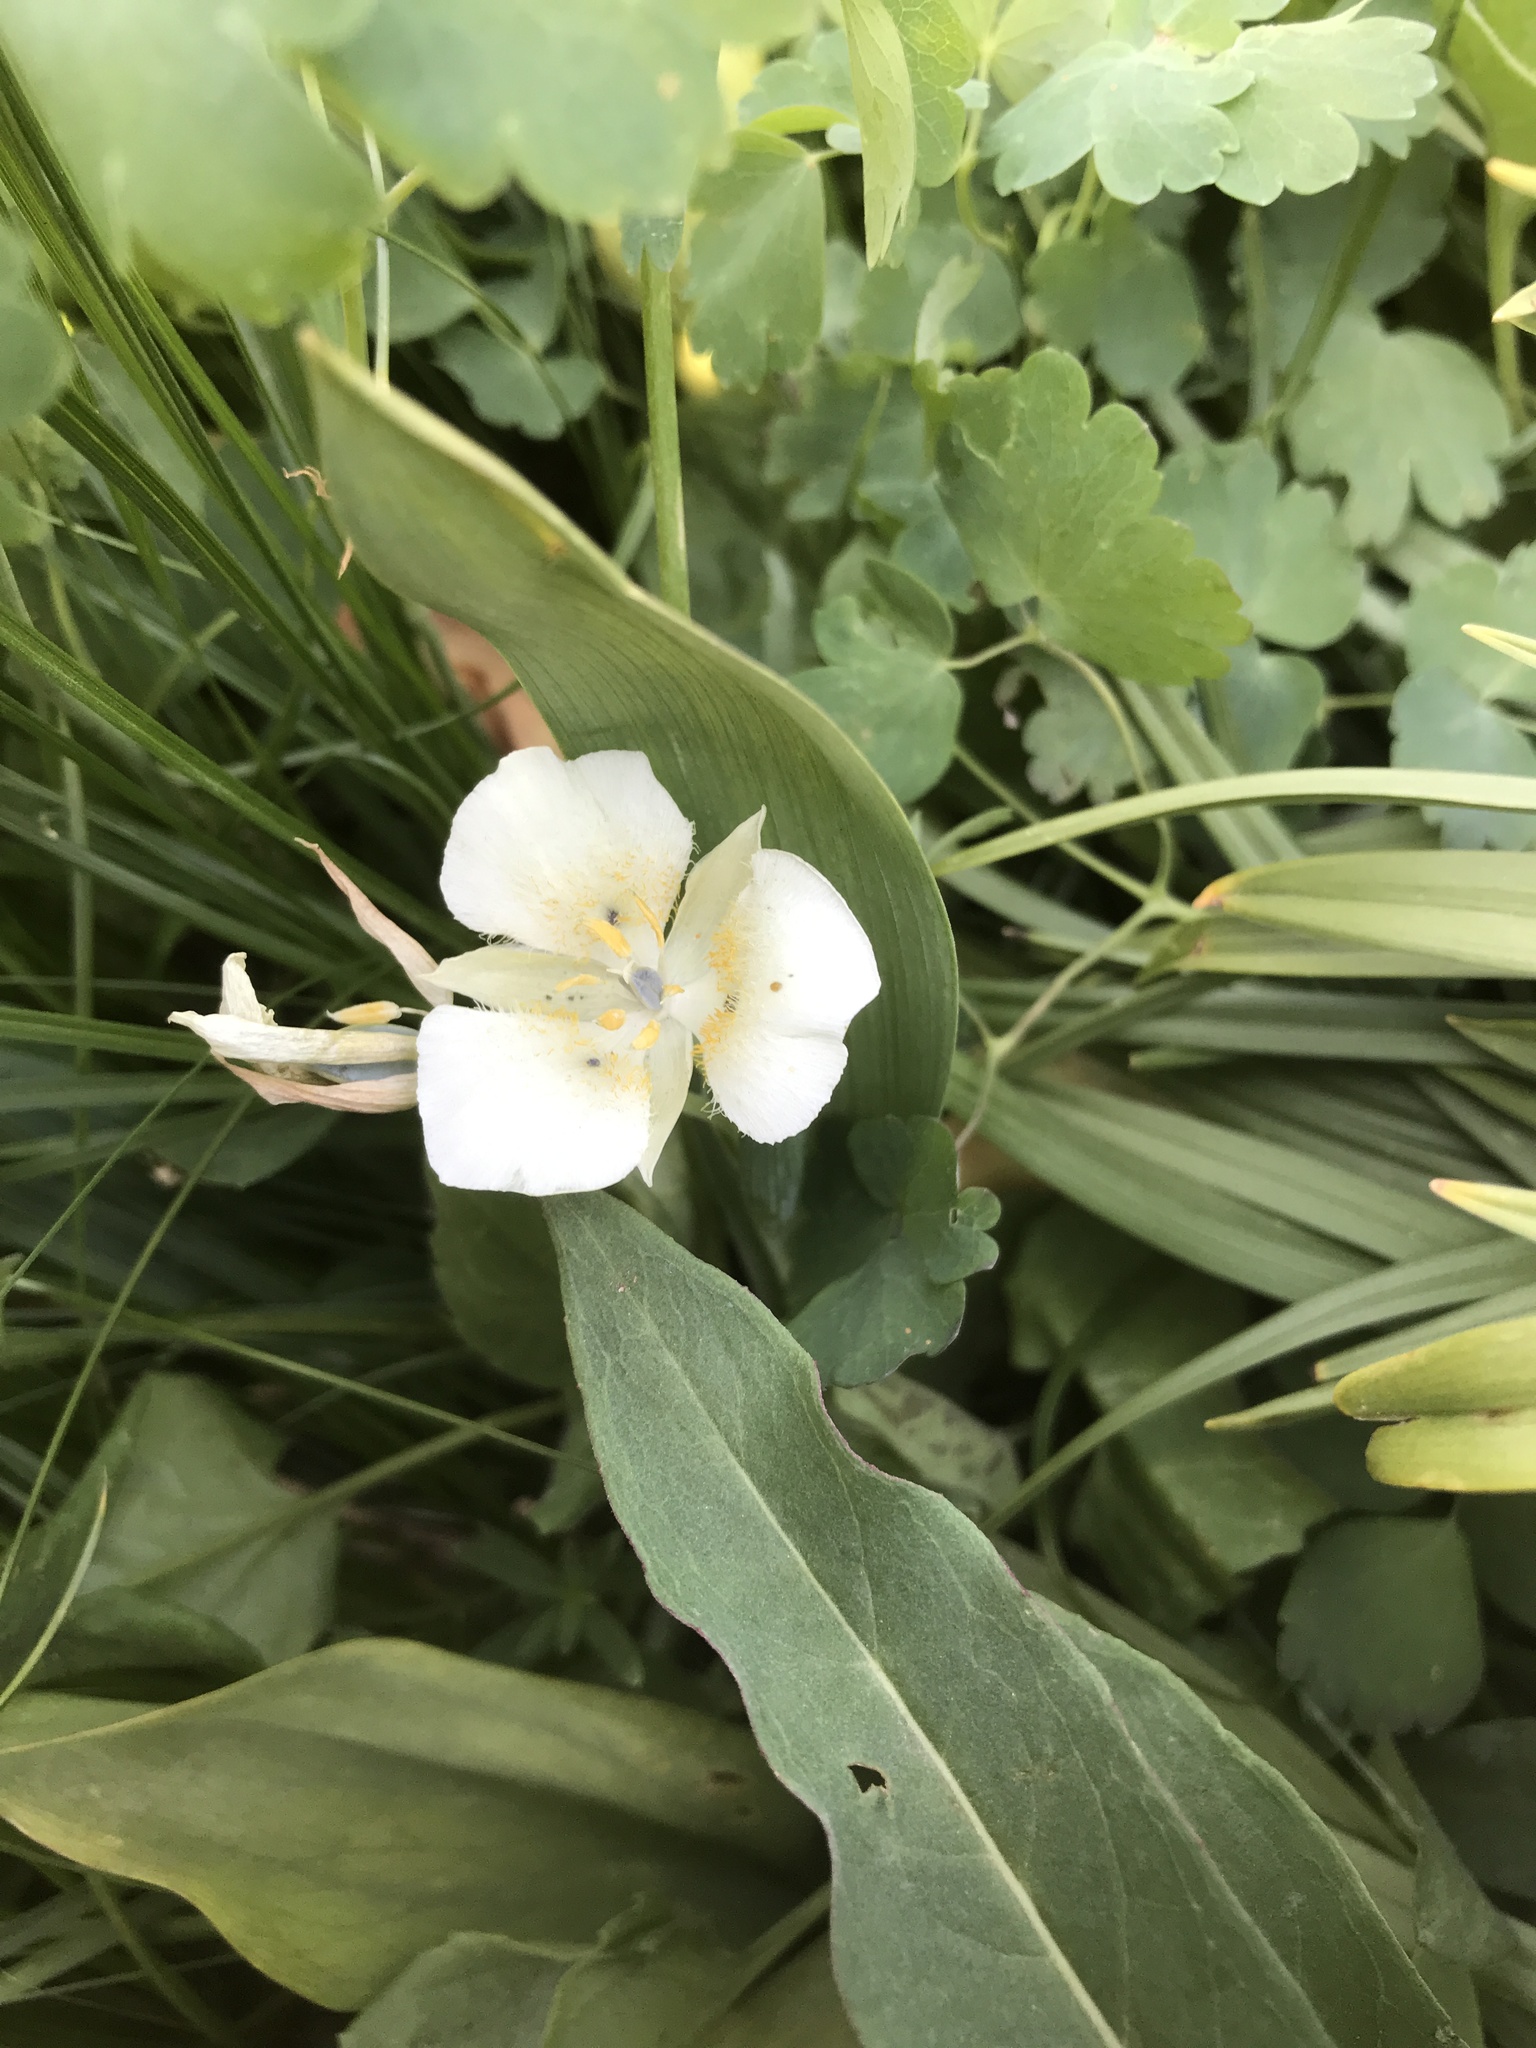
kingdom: Plantae
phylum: Tracheophyta
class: Liliopsida
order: Liliales
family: Liliaceae
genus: Calochortus
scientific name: Calochortus apiculatus
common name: Baker's mariposa lily
